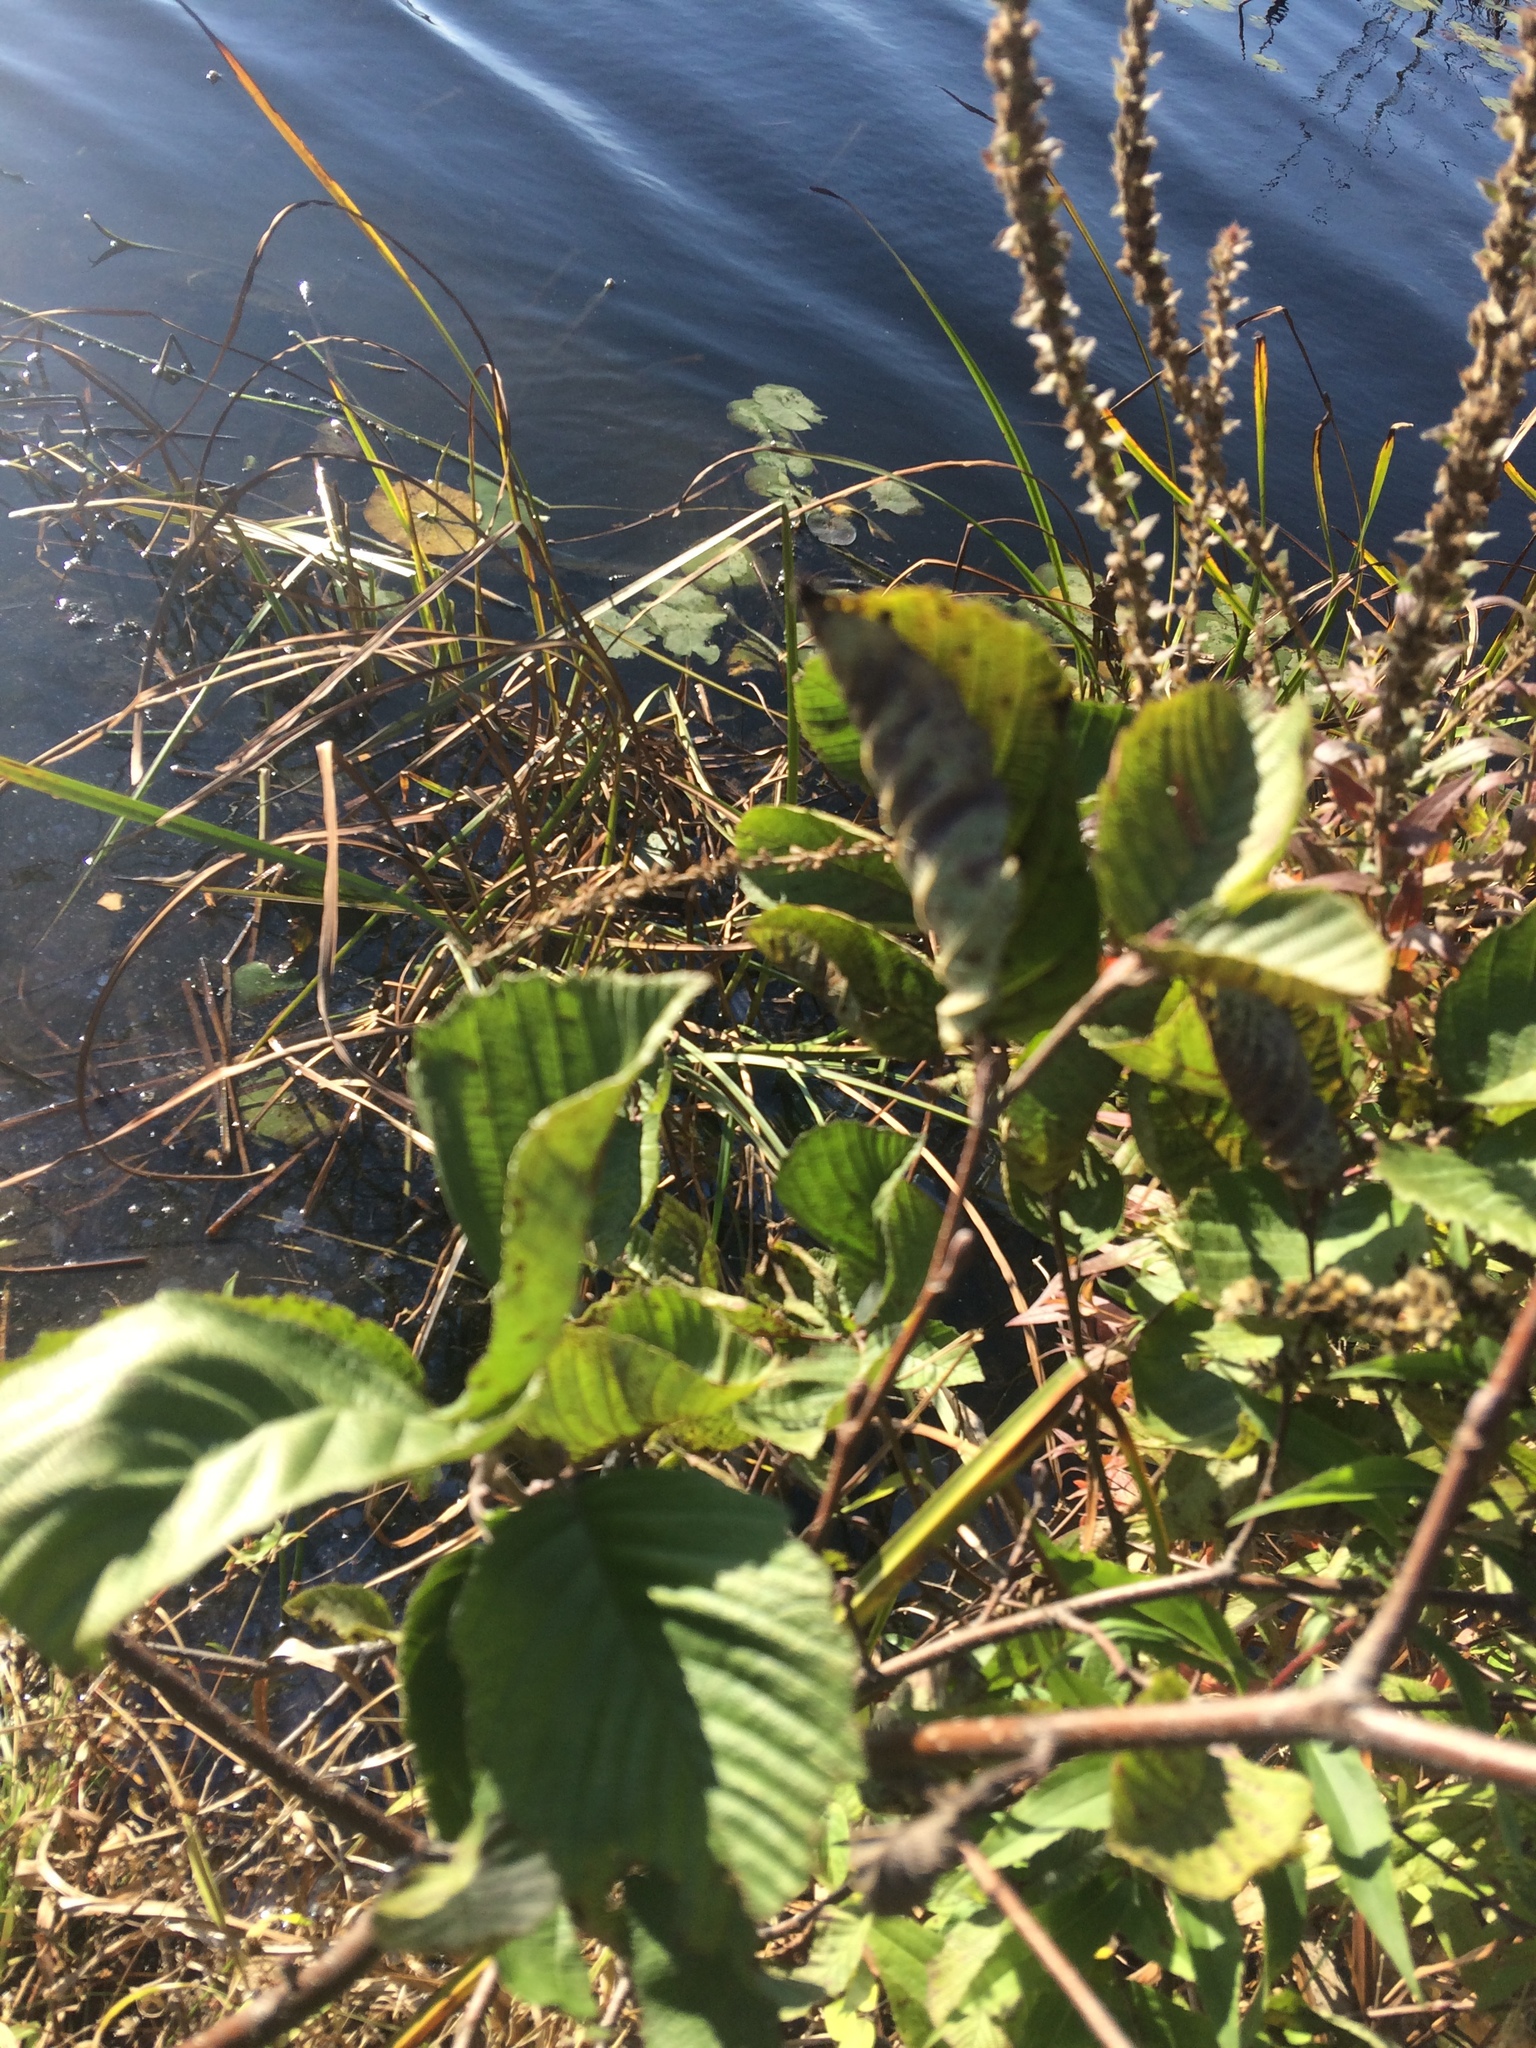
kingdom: Plantae
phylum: Tracheophyta
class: Magnoliopsida
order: Fagales
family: Betulaceae
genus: Alnus
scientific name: Alnus incana
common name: Grey alder
